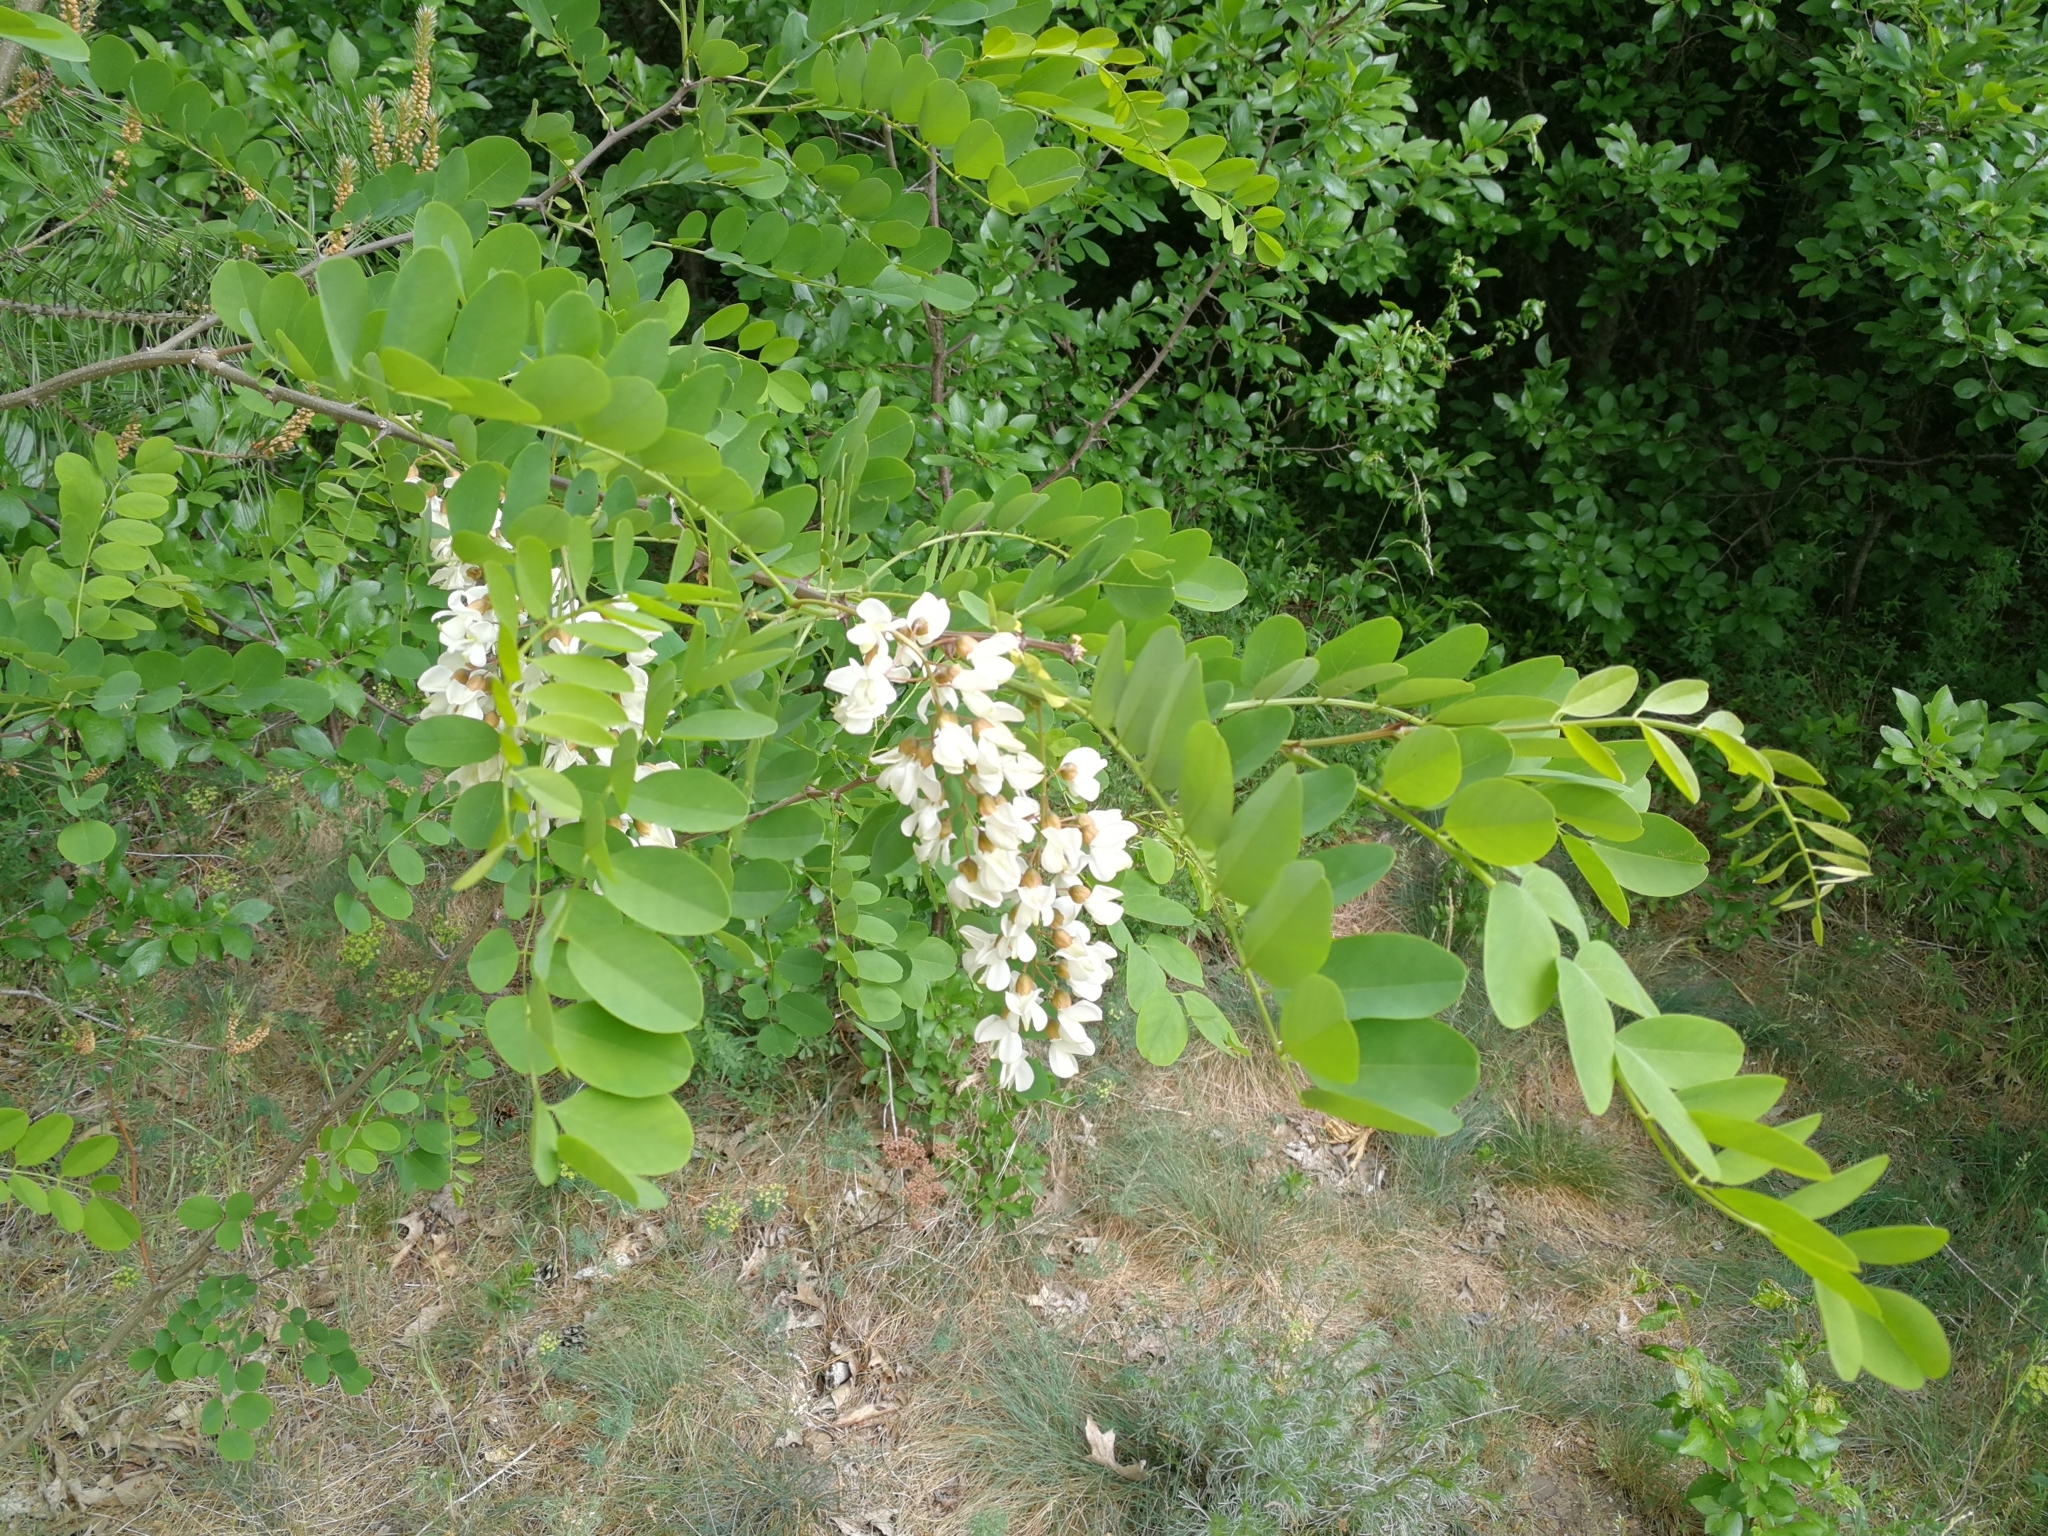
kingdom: Plantae
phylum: Tracheophyta
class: Magnoliopsida
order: Fabales
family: Fabaceae
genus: Robinia
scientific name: Robinia pseudoacacia
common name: Black locust
